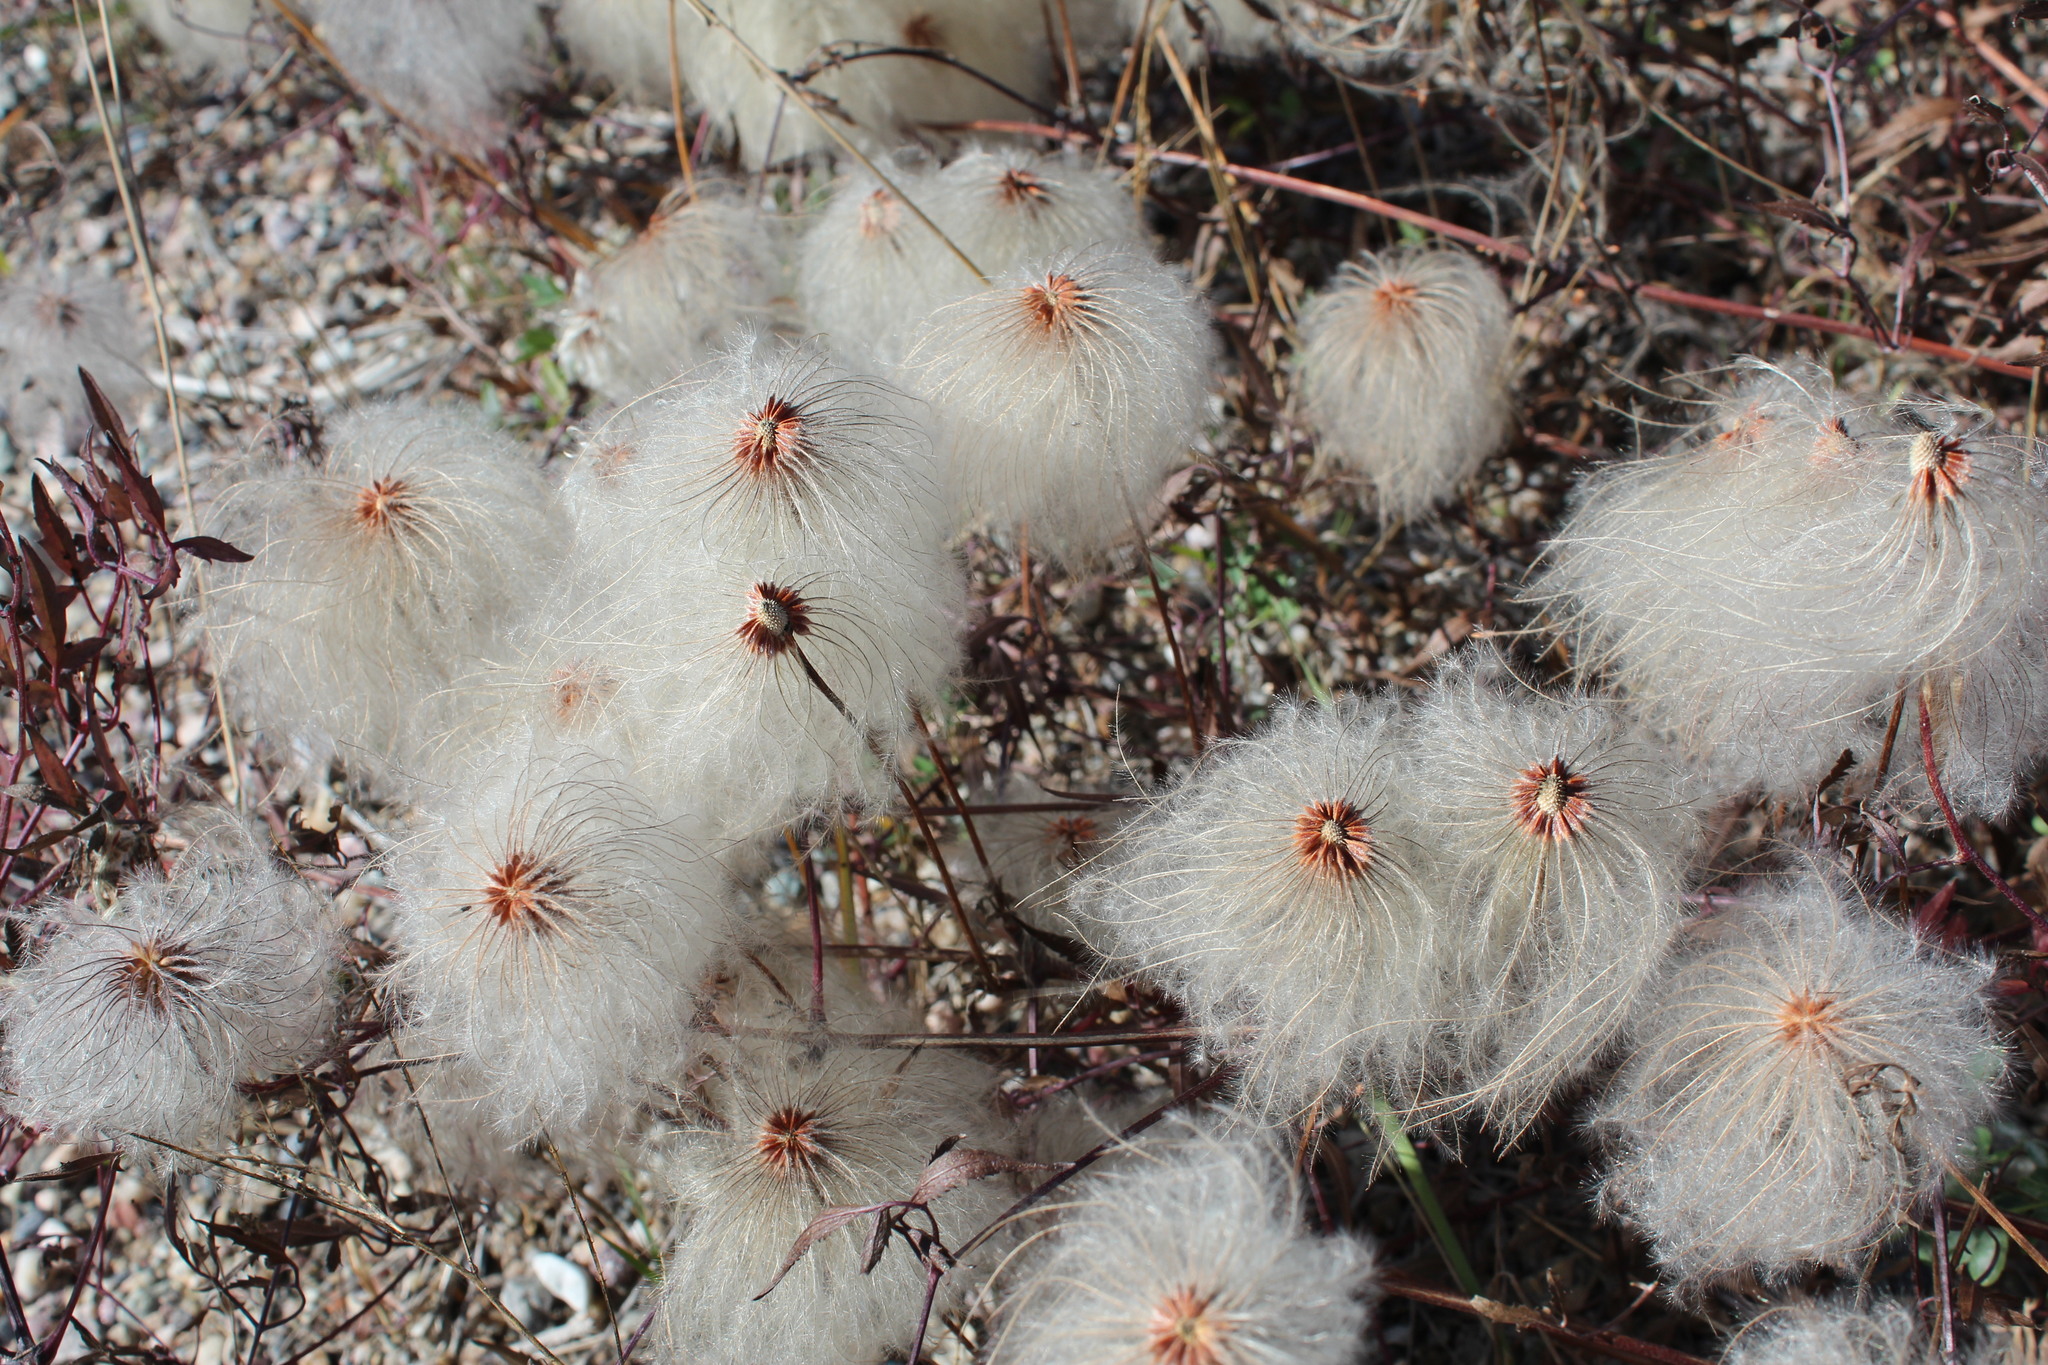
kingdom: Plantae
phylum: Tracheophyta
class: Magnoliopsida
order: Ranunculales
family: Ranunculaceae
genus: Clematis
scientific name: Clematis tangutica
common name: Orange-peel clematis
